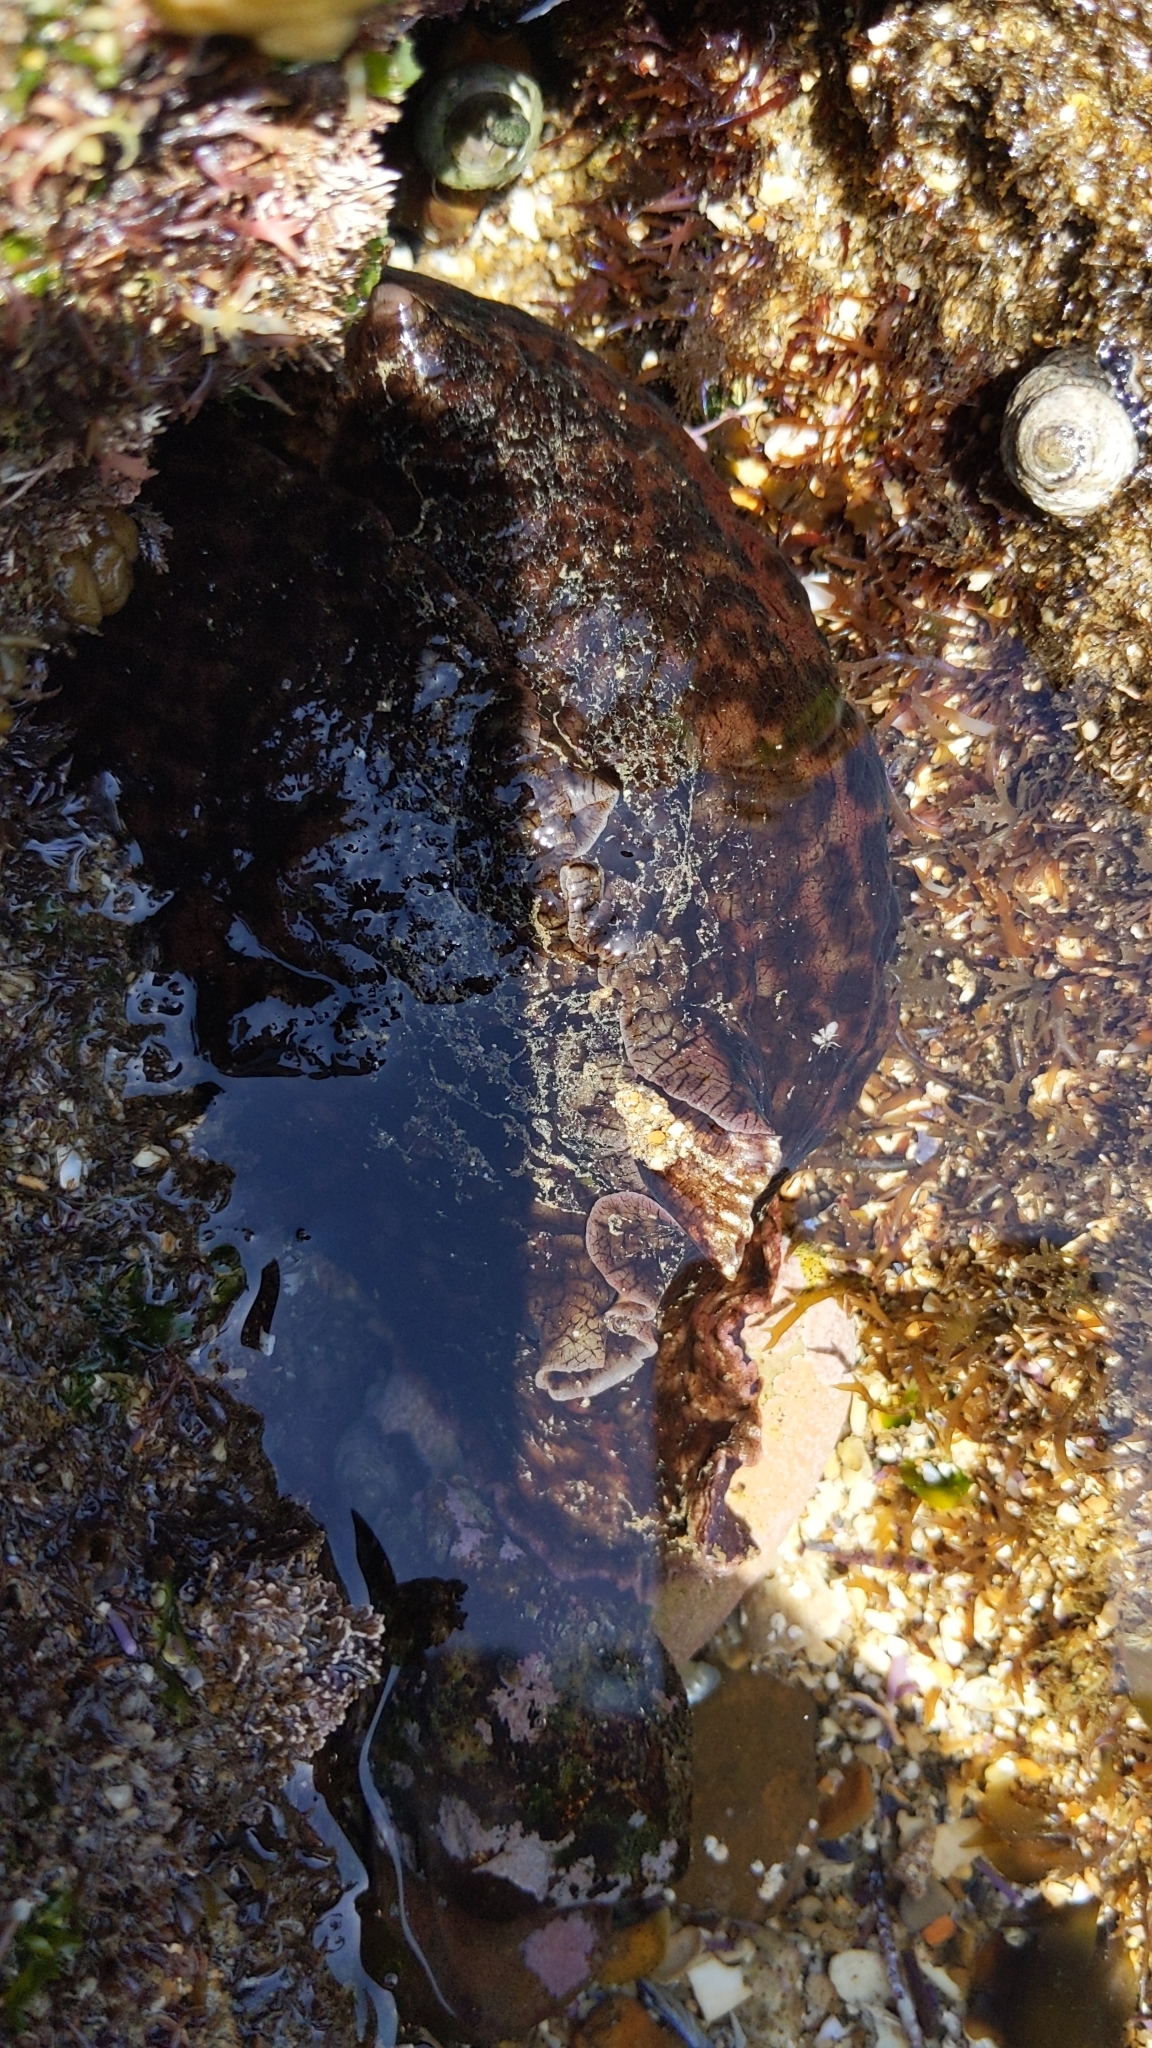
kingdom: Animalia
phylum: Mollusca
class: Gastropoda
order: Aplysiida
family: Aplysiidae
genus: Aplysia
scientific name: Aplysia californica
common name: California seahare
